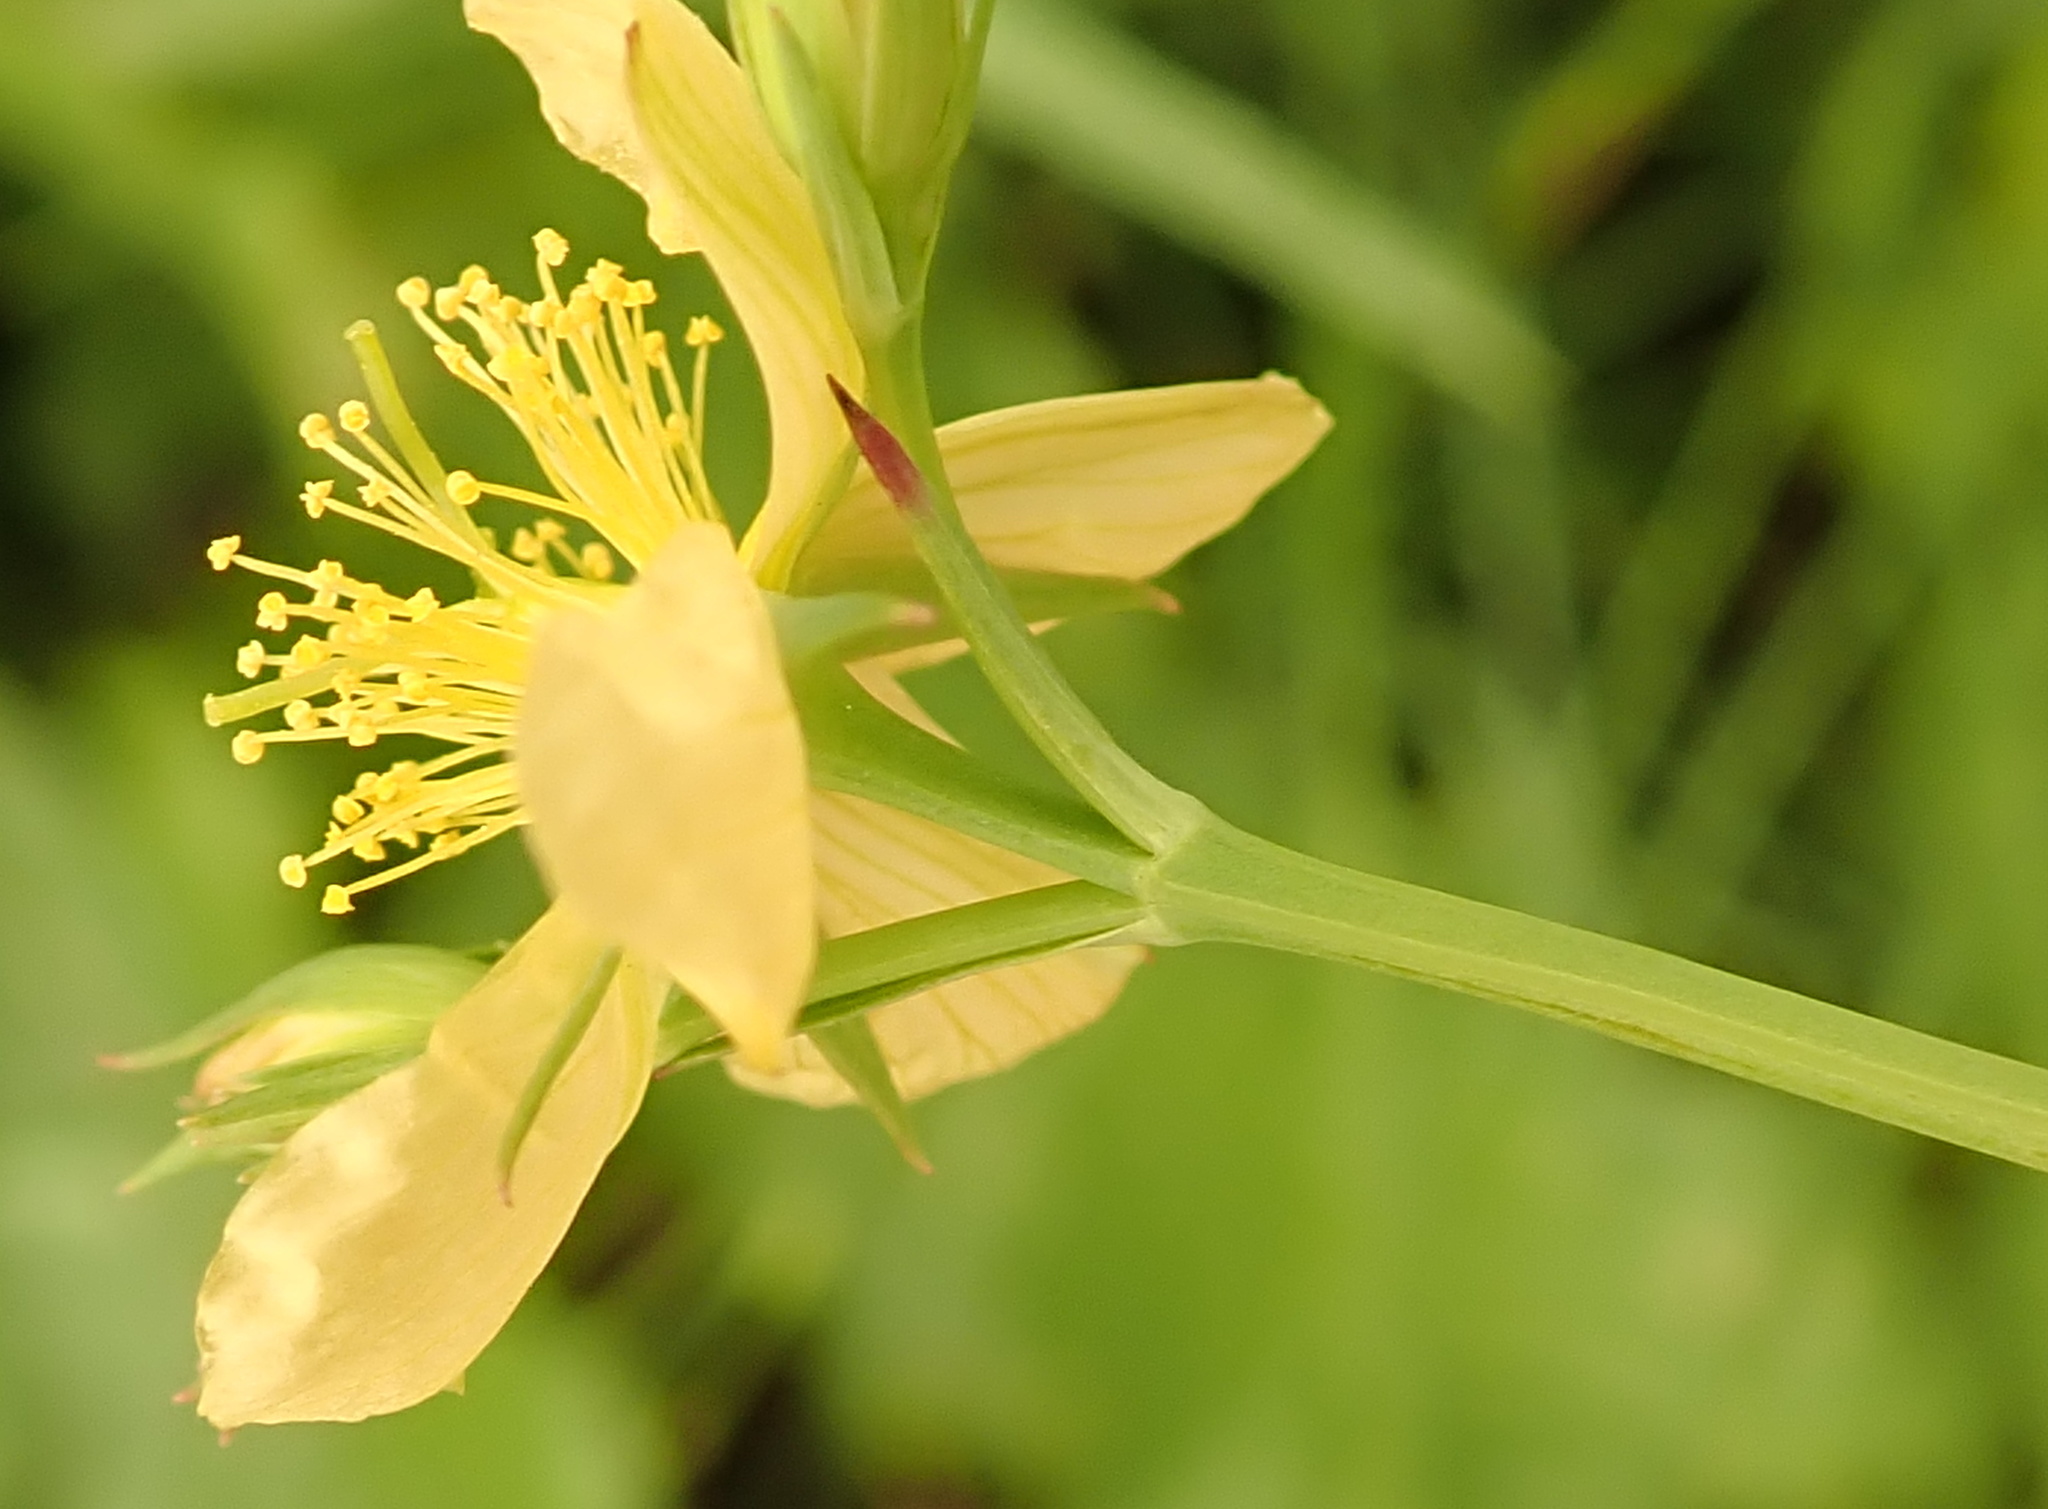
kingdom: Plantae
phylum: Tracheophyta
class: Magnoliopsida
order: Malpighiales
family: Hypericaceae
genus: Hypericum
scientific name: Hypericum lalandii
